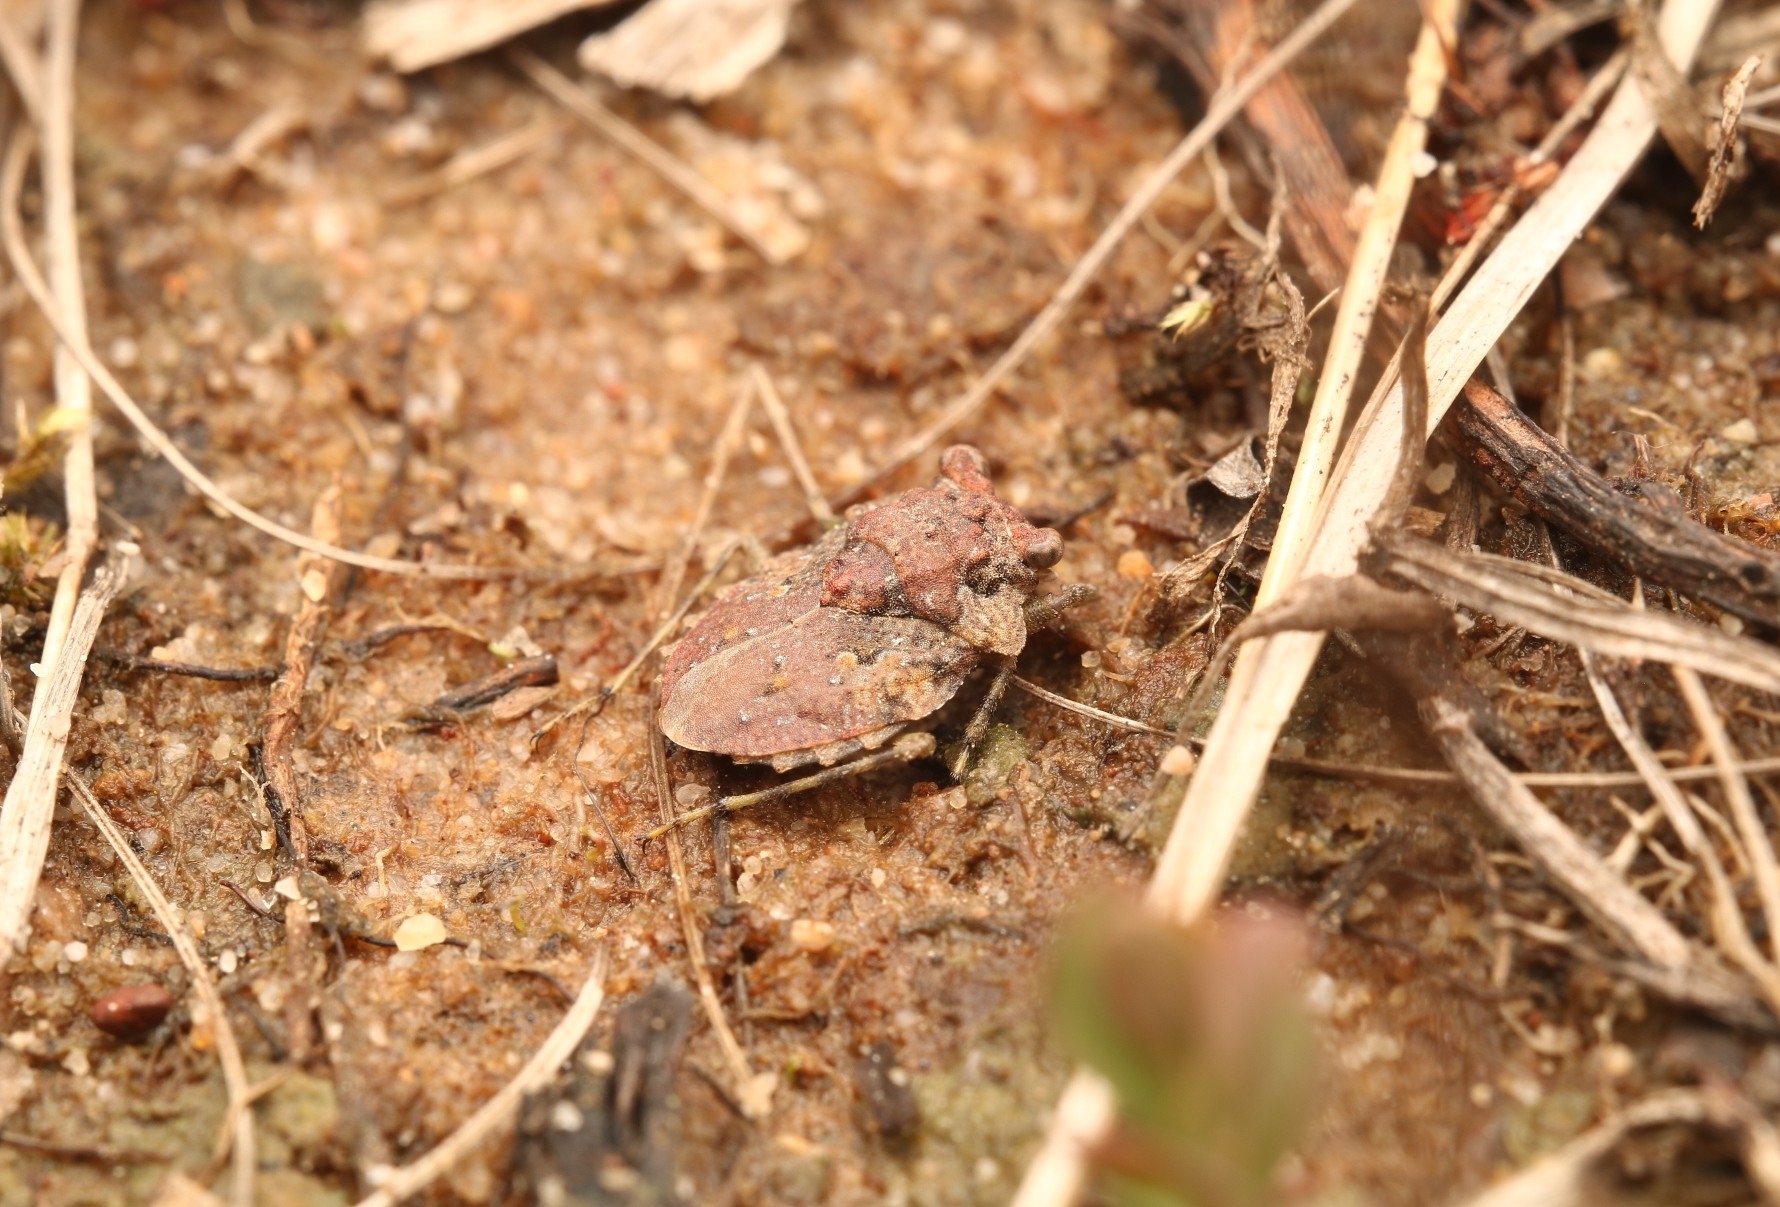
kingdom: Animalia
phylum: Arthropoda
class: Insecta
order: Hemiptera
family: Gelastocoridae
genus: Gelastocoris
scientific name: Gelastocoris oculatus
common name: Toad bug
